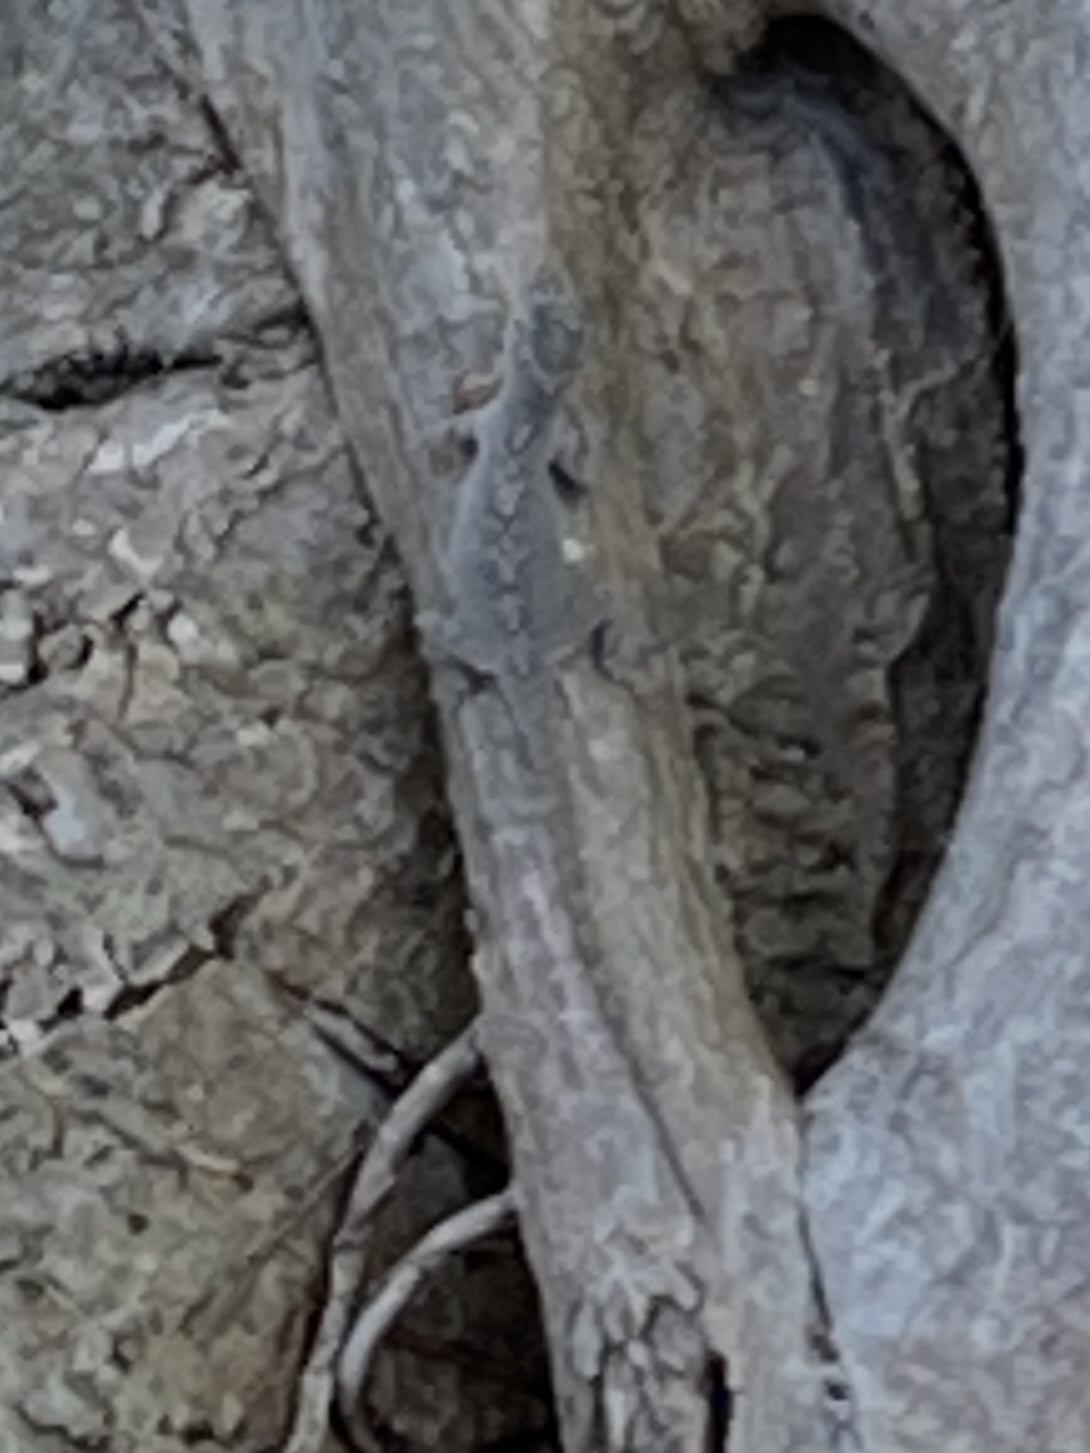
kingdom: Animalia
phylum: Chordata
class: Squamata
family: Dactyloidae
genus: Anolis
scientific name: Anolis distichus
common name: Bark anole
